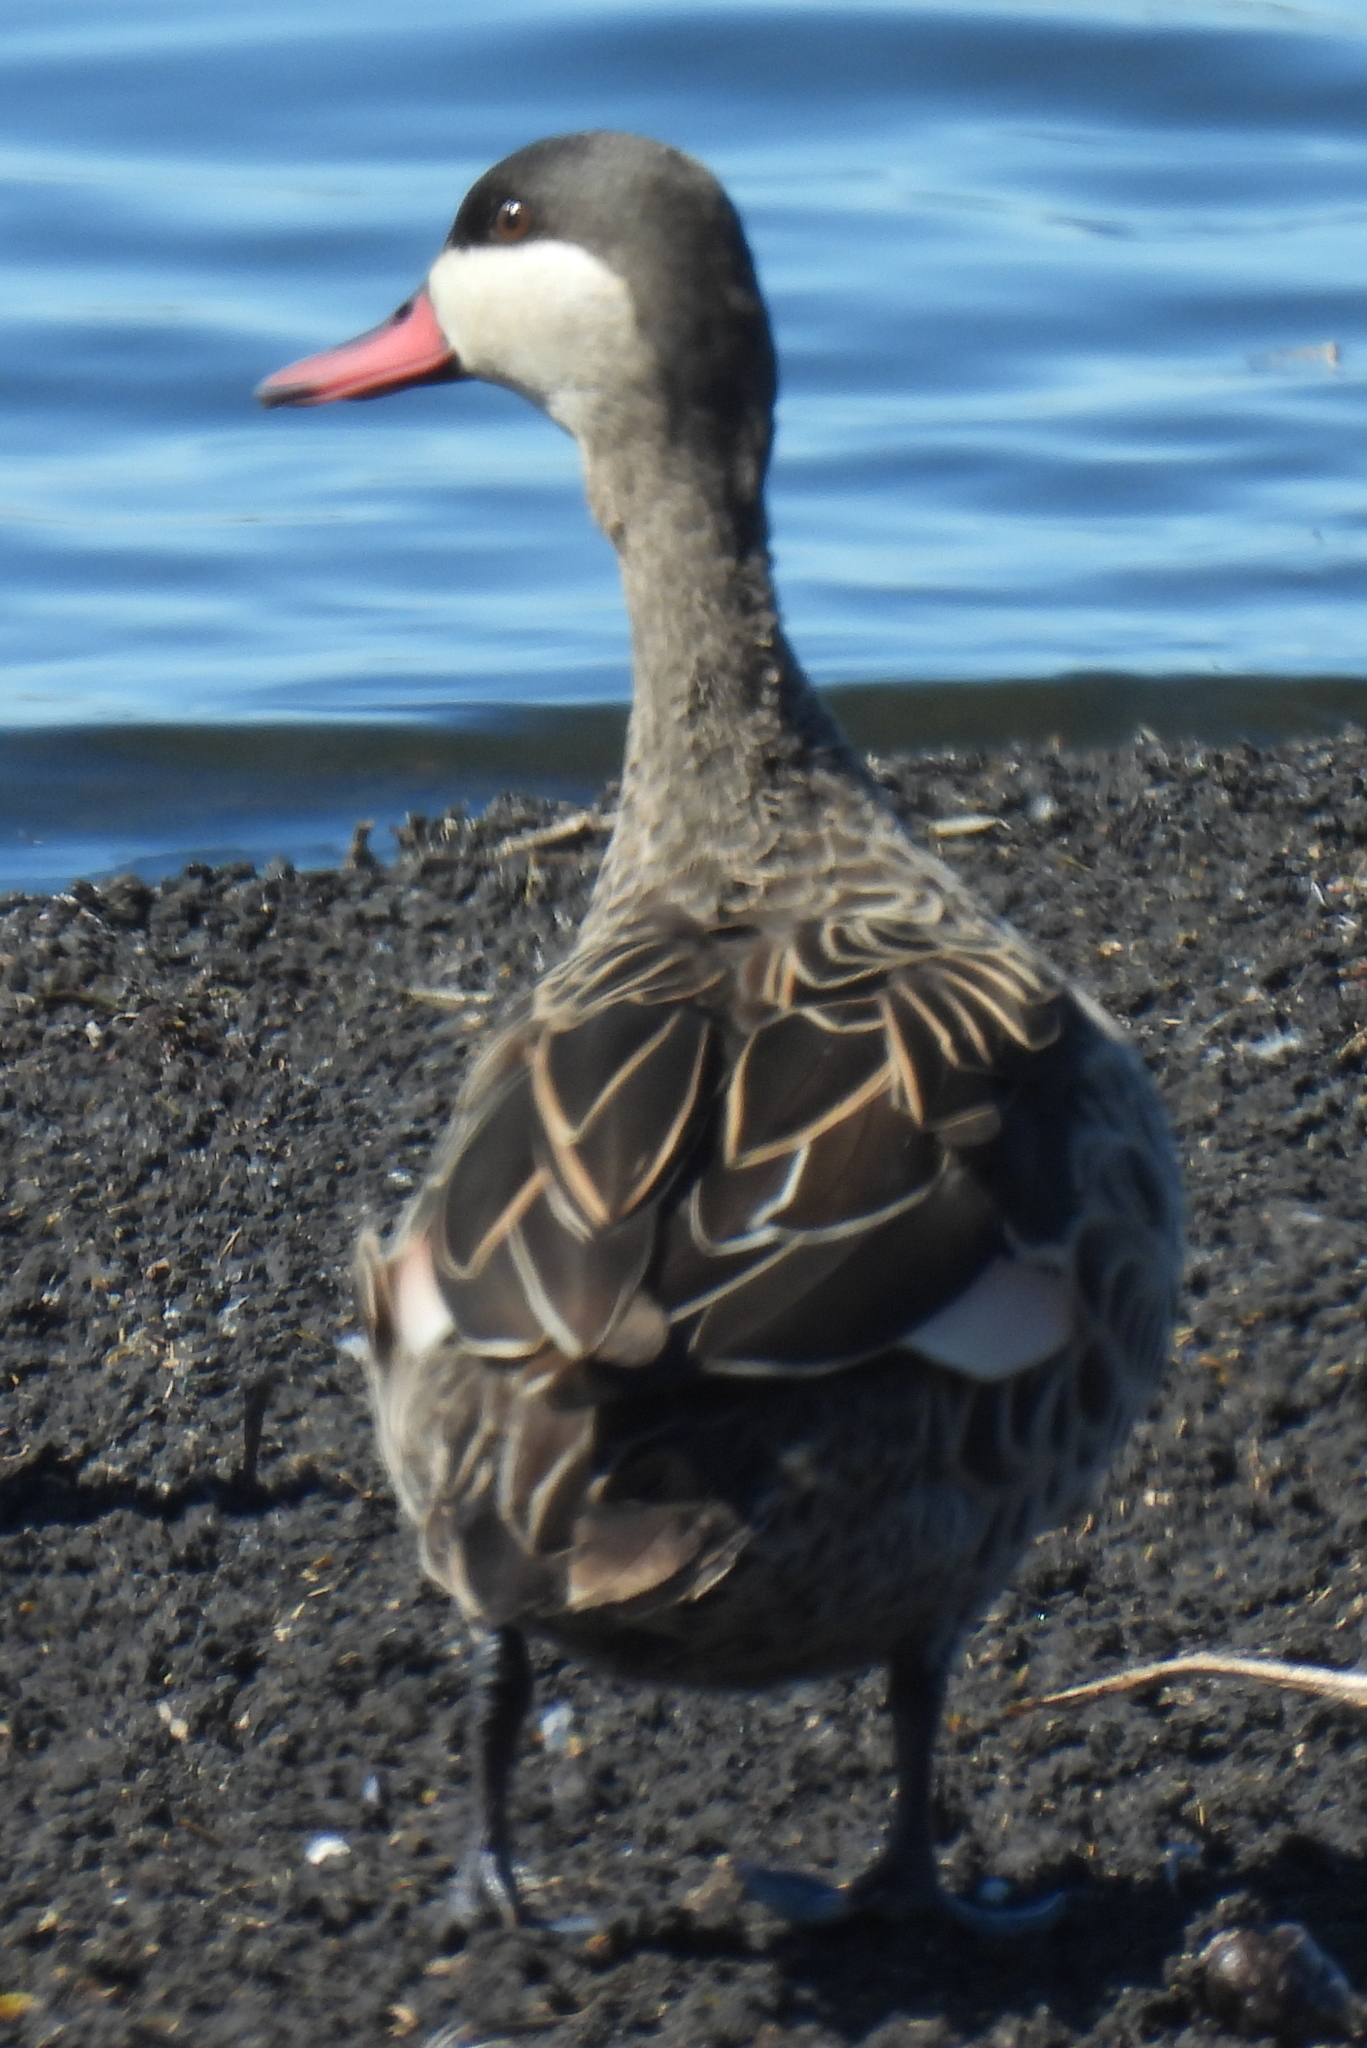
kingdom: Animalia
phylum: Chordata
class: Aves
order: Anseriformes
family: Anatidae
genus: Anas
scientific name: Anas erythrorhyncha
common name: Red-billed teal
